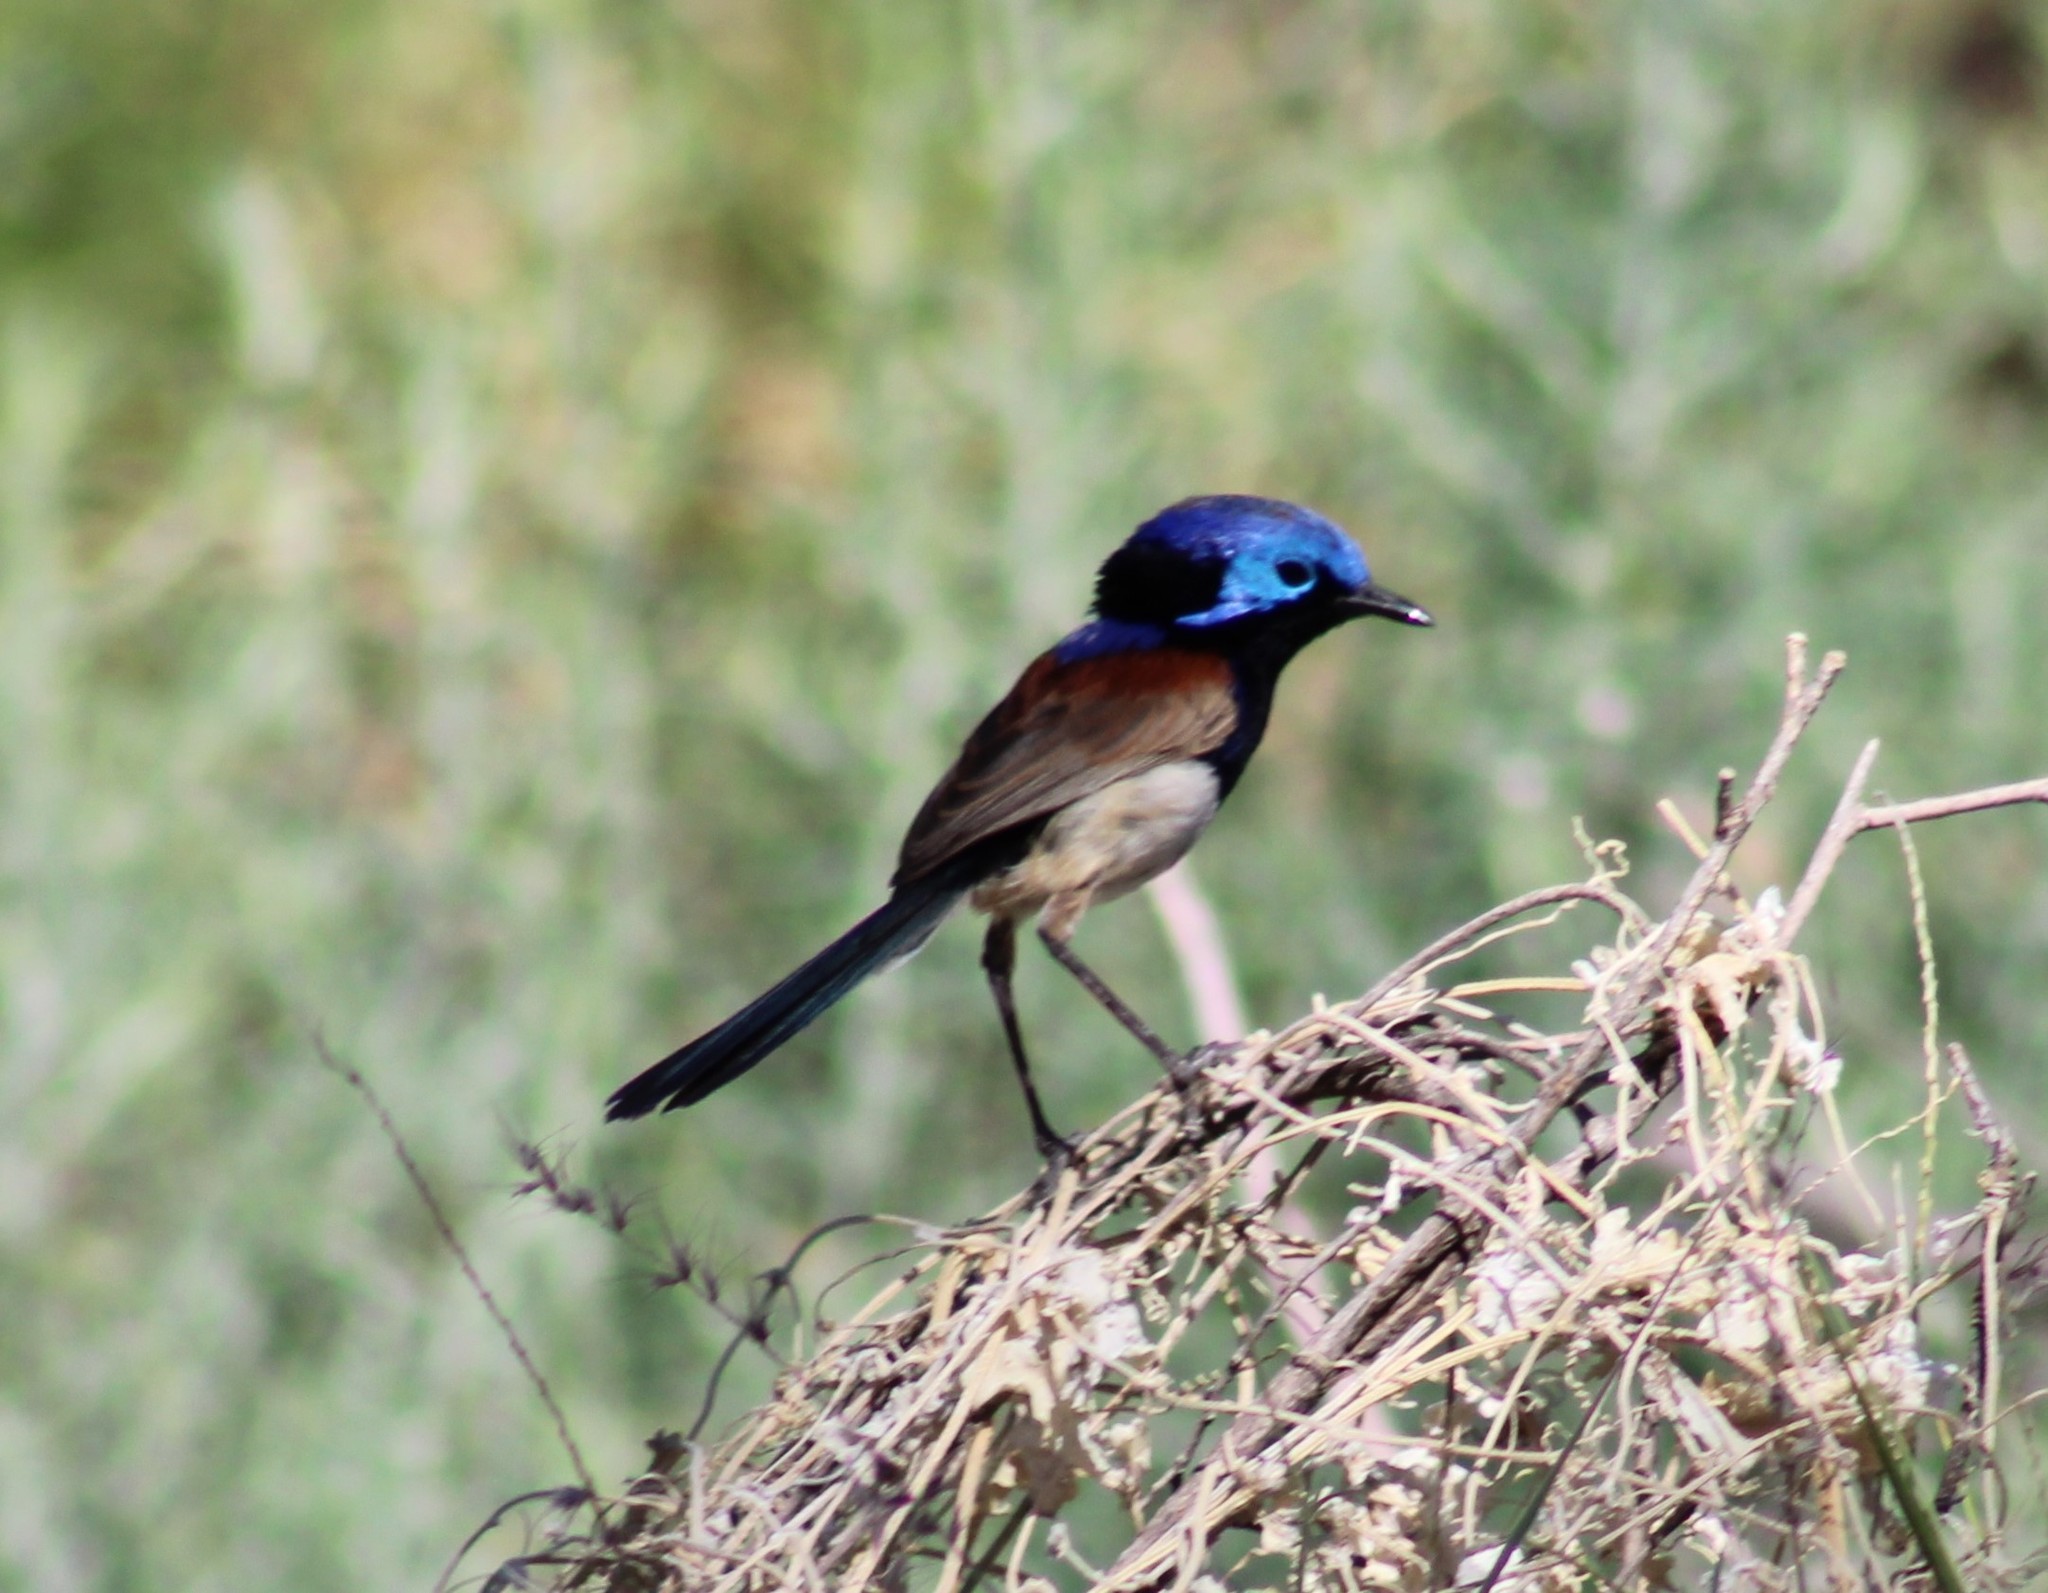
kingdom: Animalia
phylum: Chordata
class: Aves
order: Passeriformes
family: Maluridae
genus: Malurus
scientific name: Malurus assimilis
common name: Purple-backed fairywren
